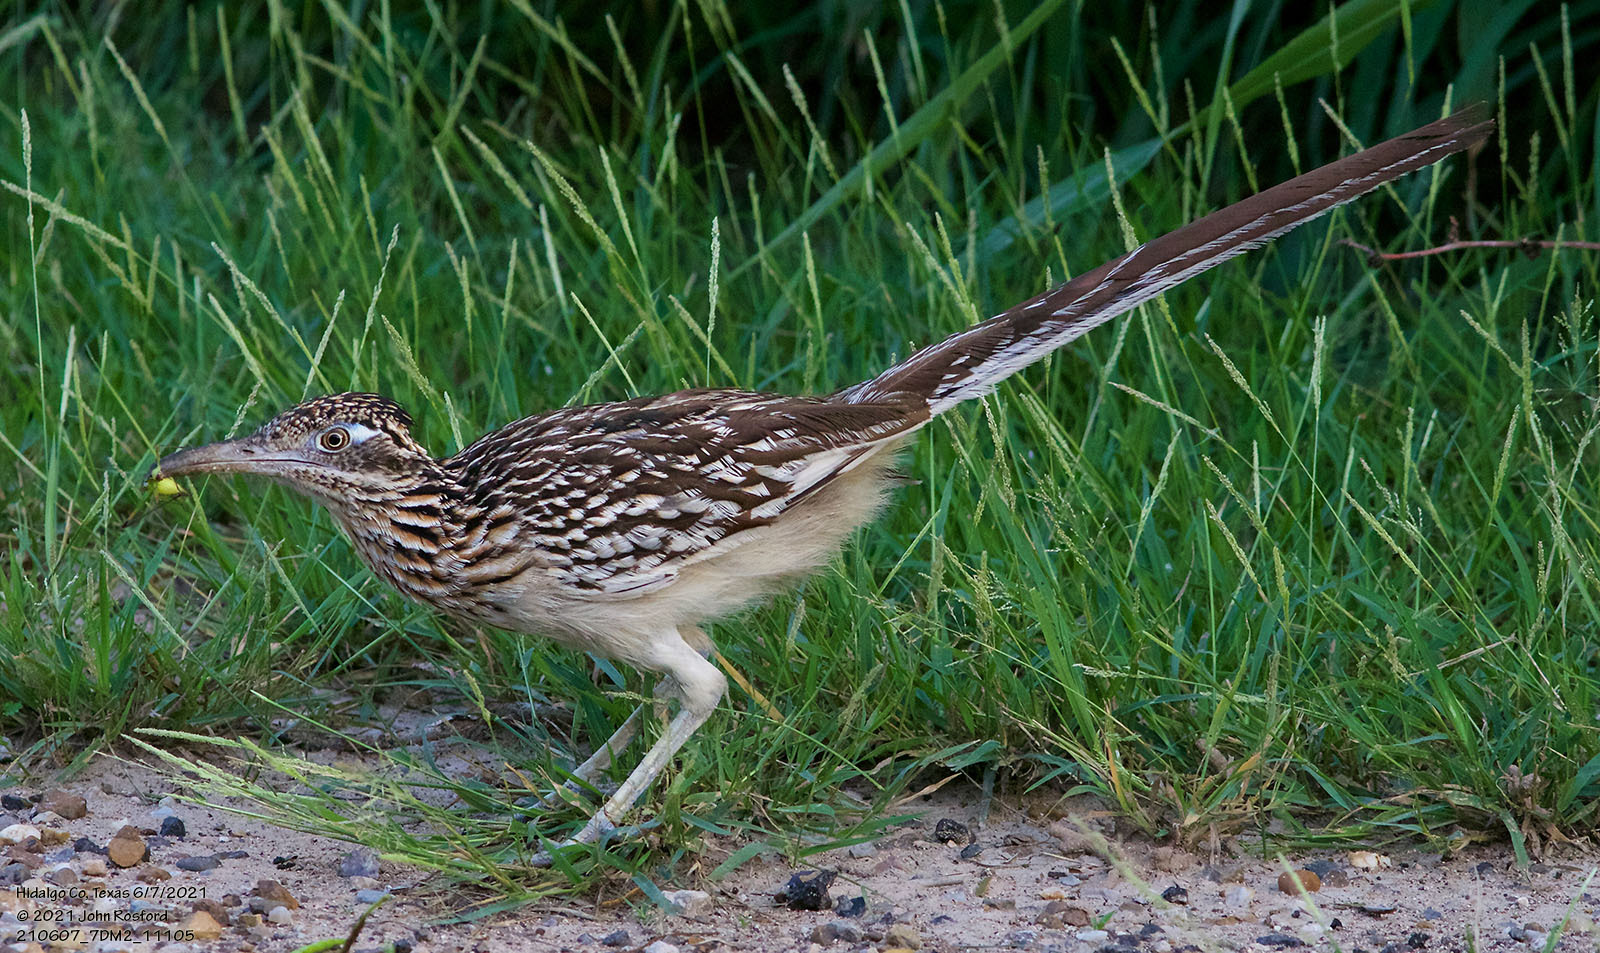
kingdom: Animalia
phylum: Chordata
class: Aves
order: Cuculiformes
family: Cuculidae
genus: Geococcyx
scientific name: Geococcyx californianus
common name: Greater roadrunner
